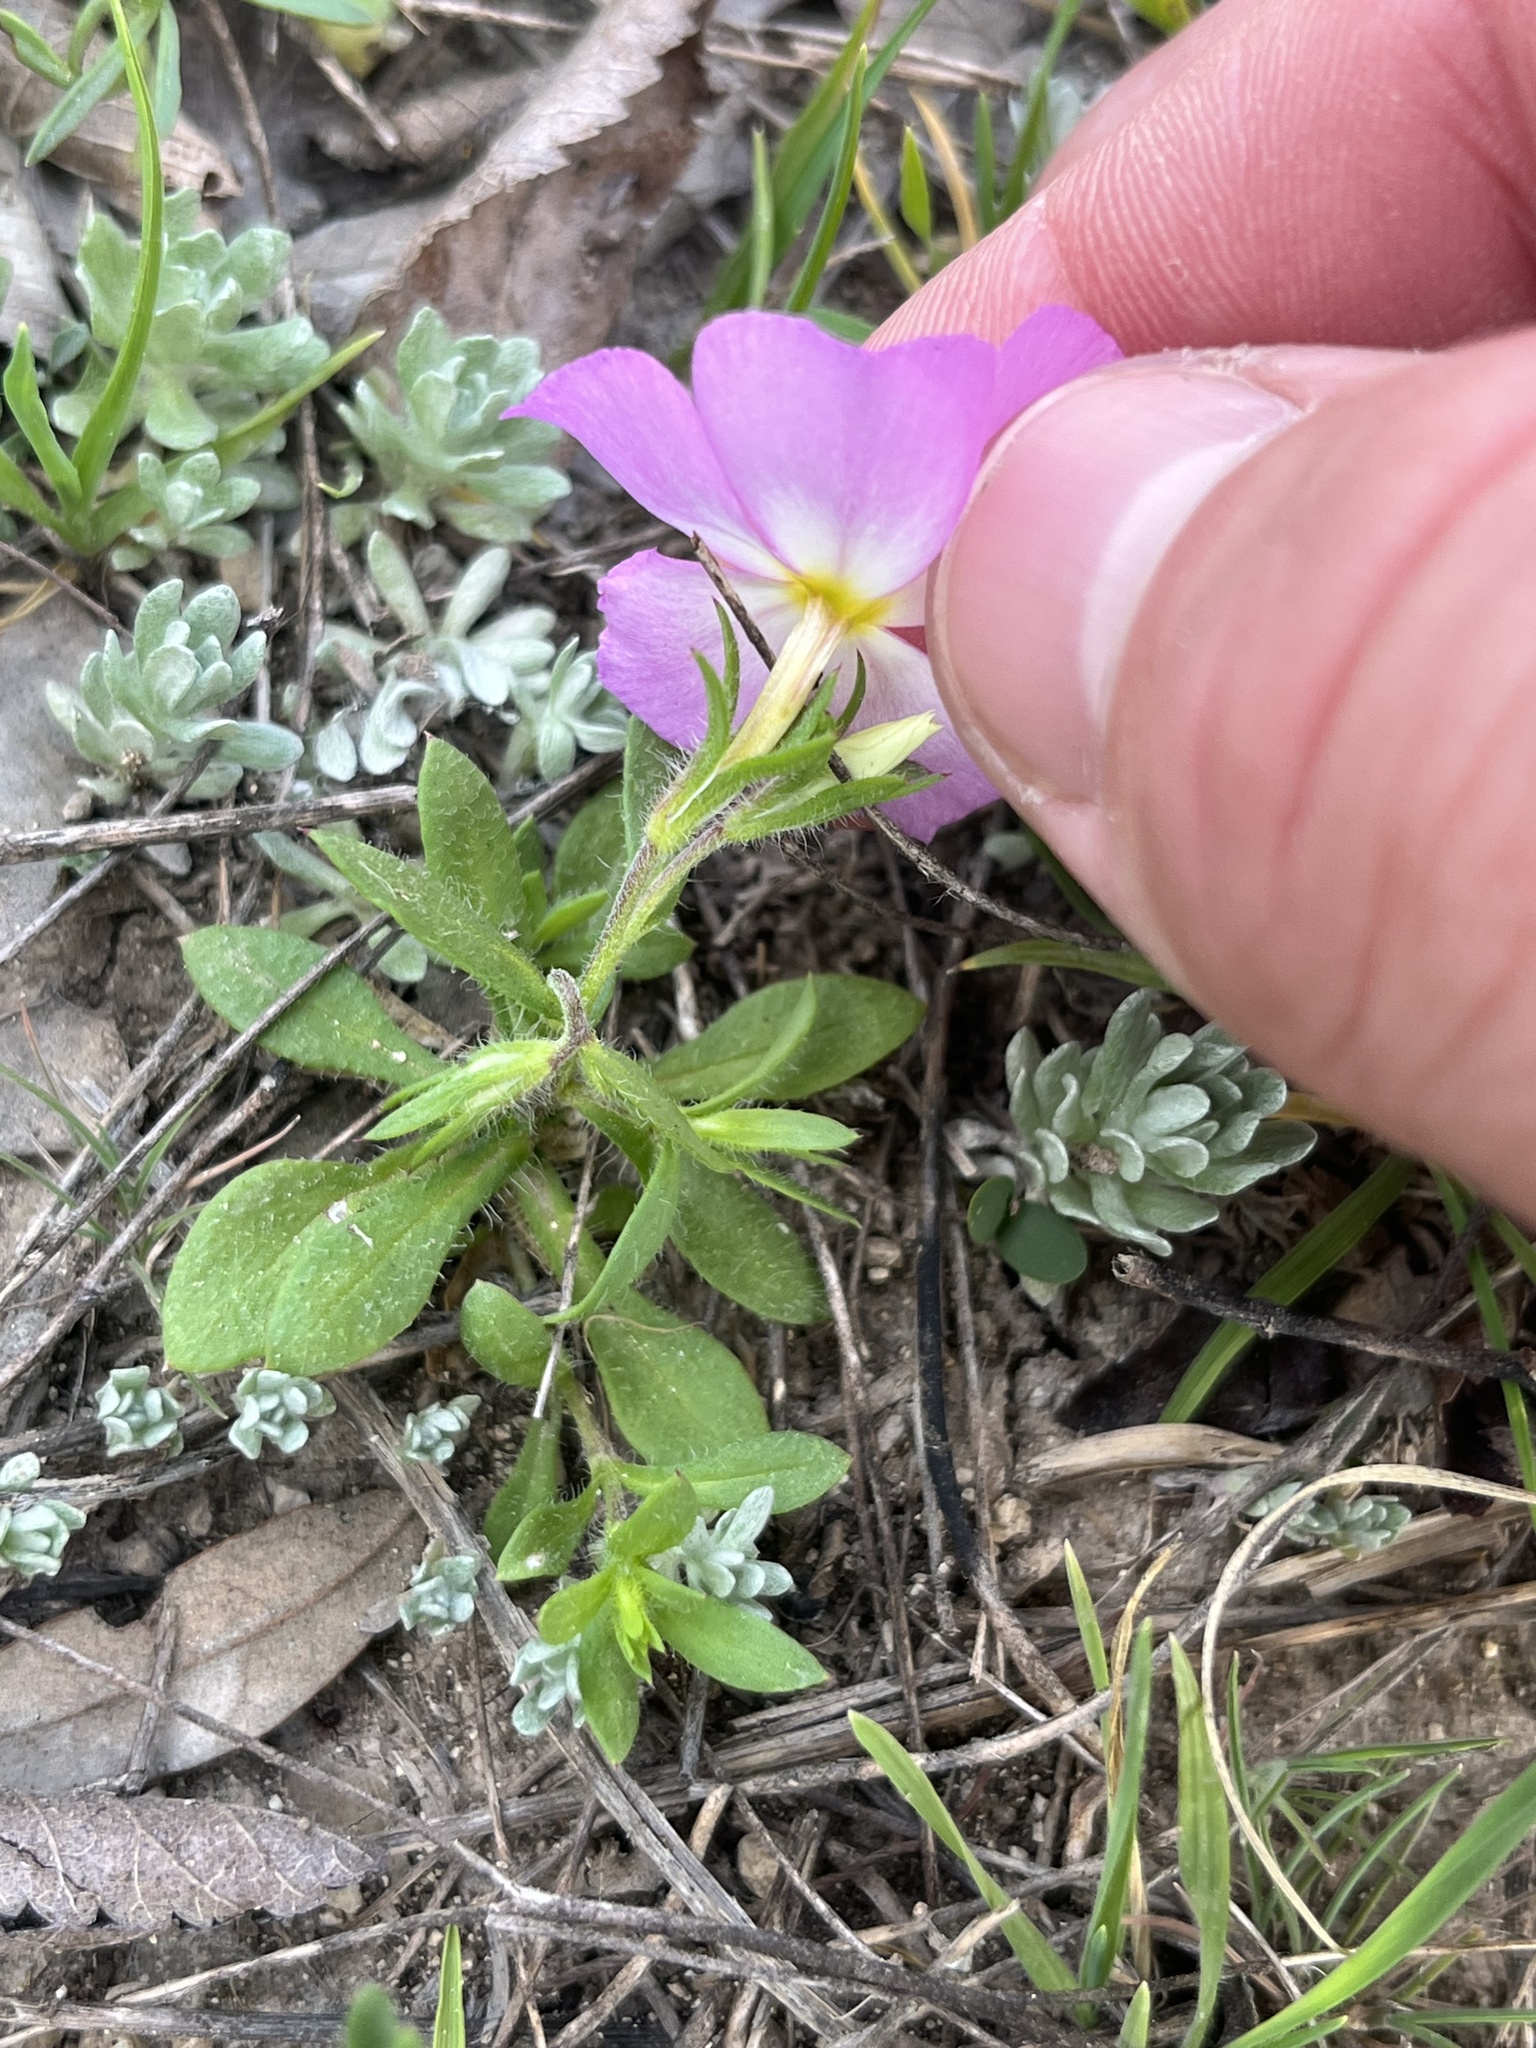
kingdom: Plantae
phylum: Tracheophyta
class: Magnoliopsida
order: Ericales
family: Polemoniaceae
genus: Phlox
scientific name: Phlox roemeriana
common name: Roemer's phlox
